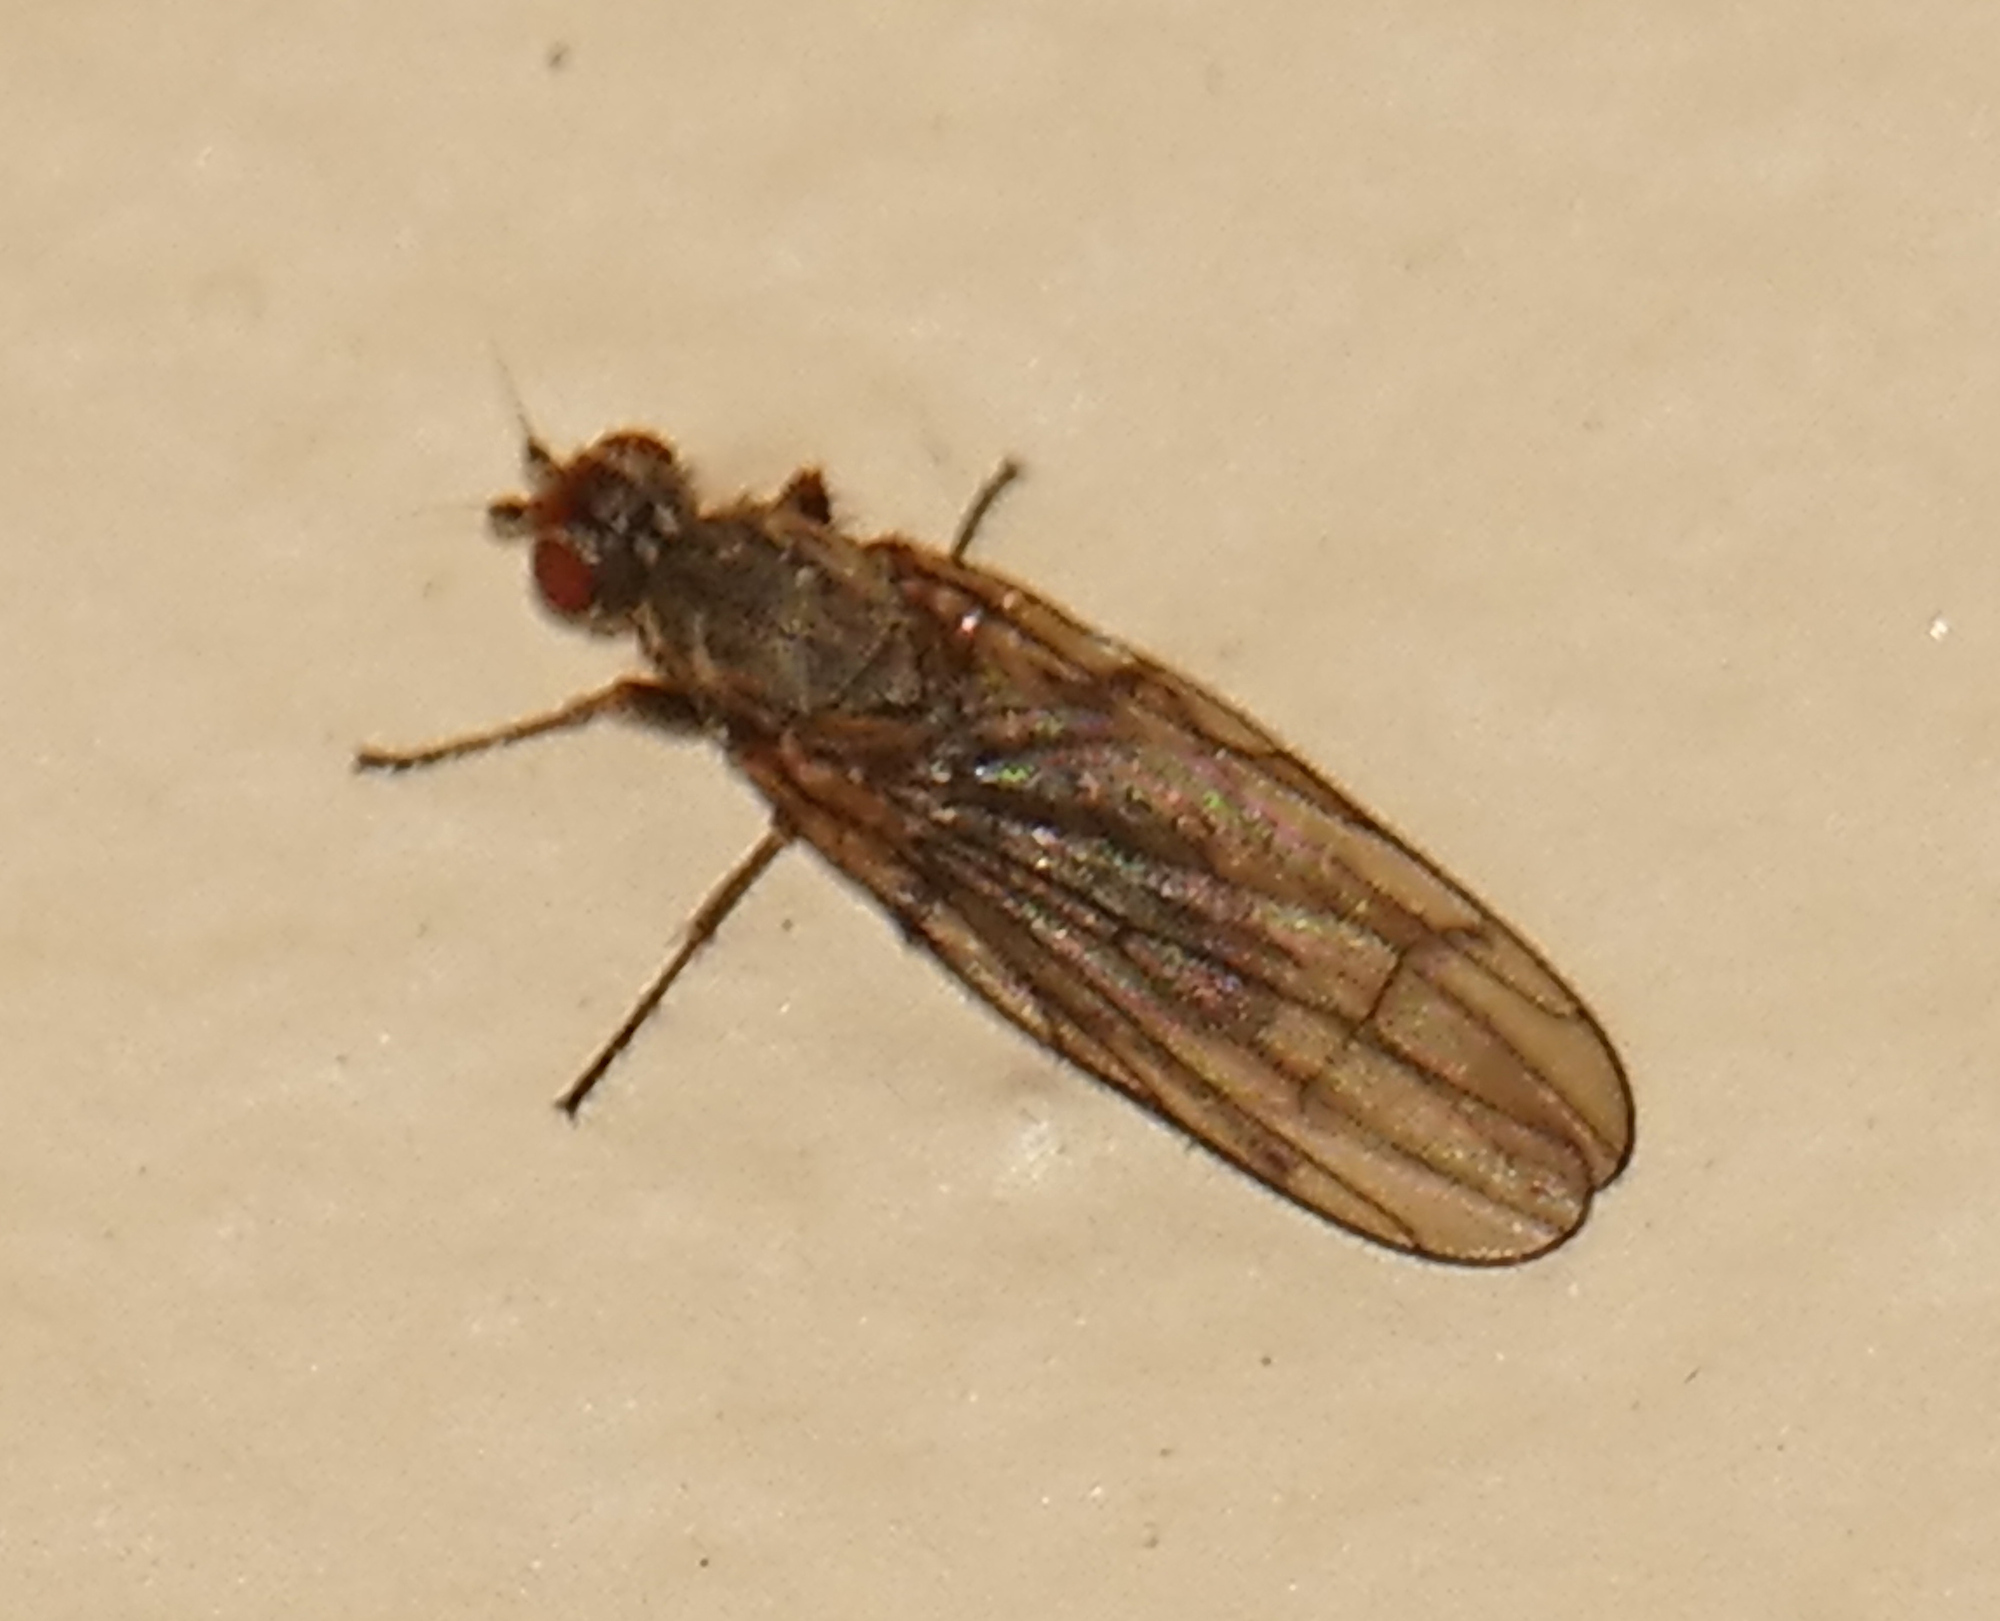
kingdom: Animalia
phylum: Arthropoda
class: Insecta
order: Diptera
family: Heleomyzidae
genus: Orbellia
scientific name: Orbellia petersoni
